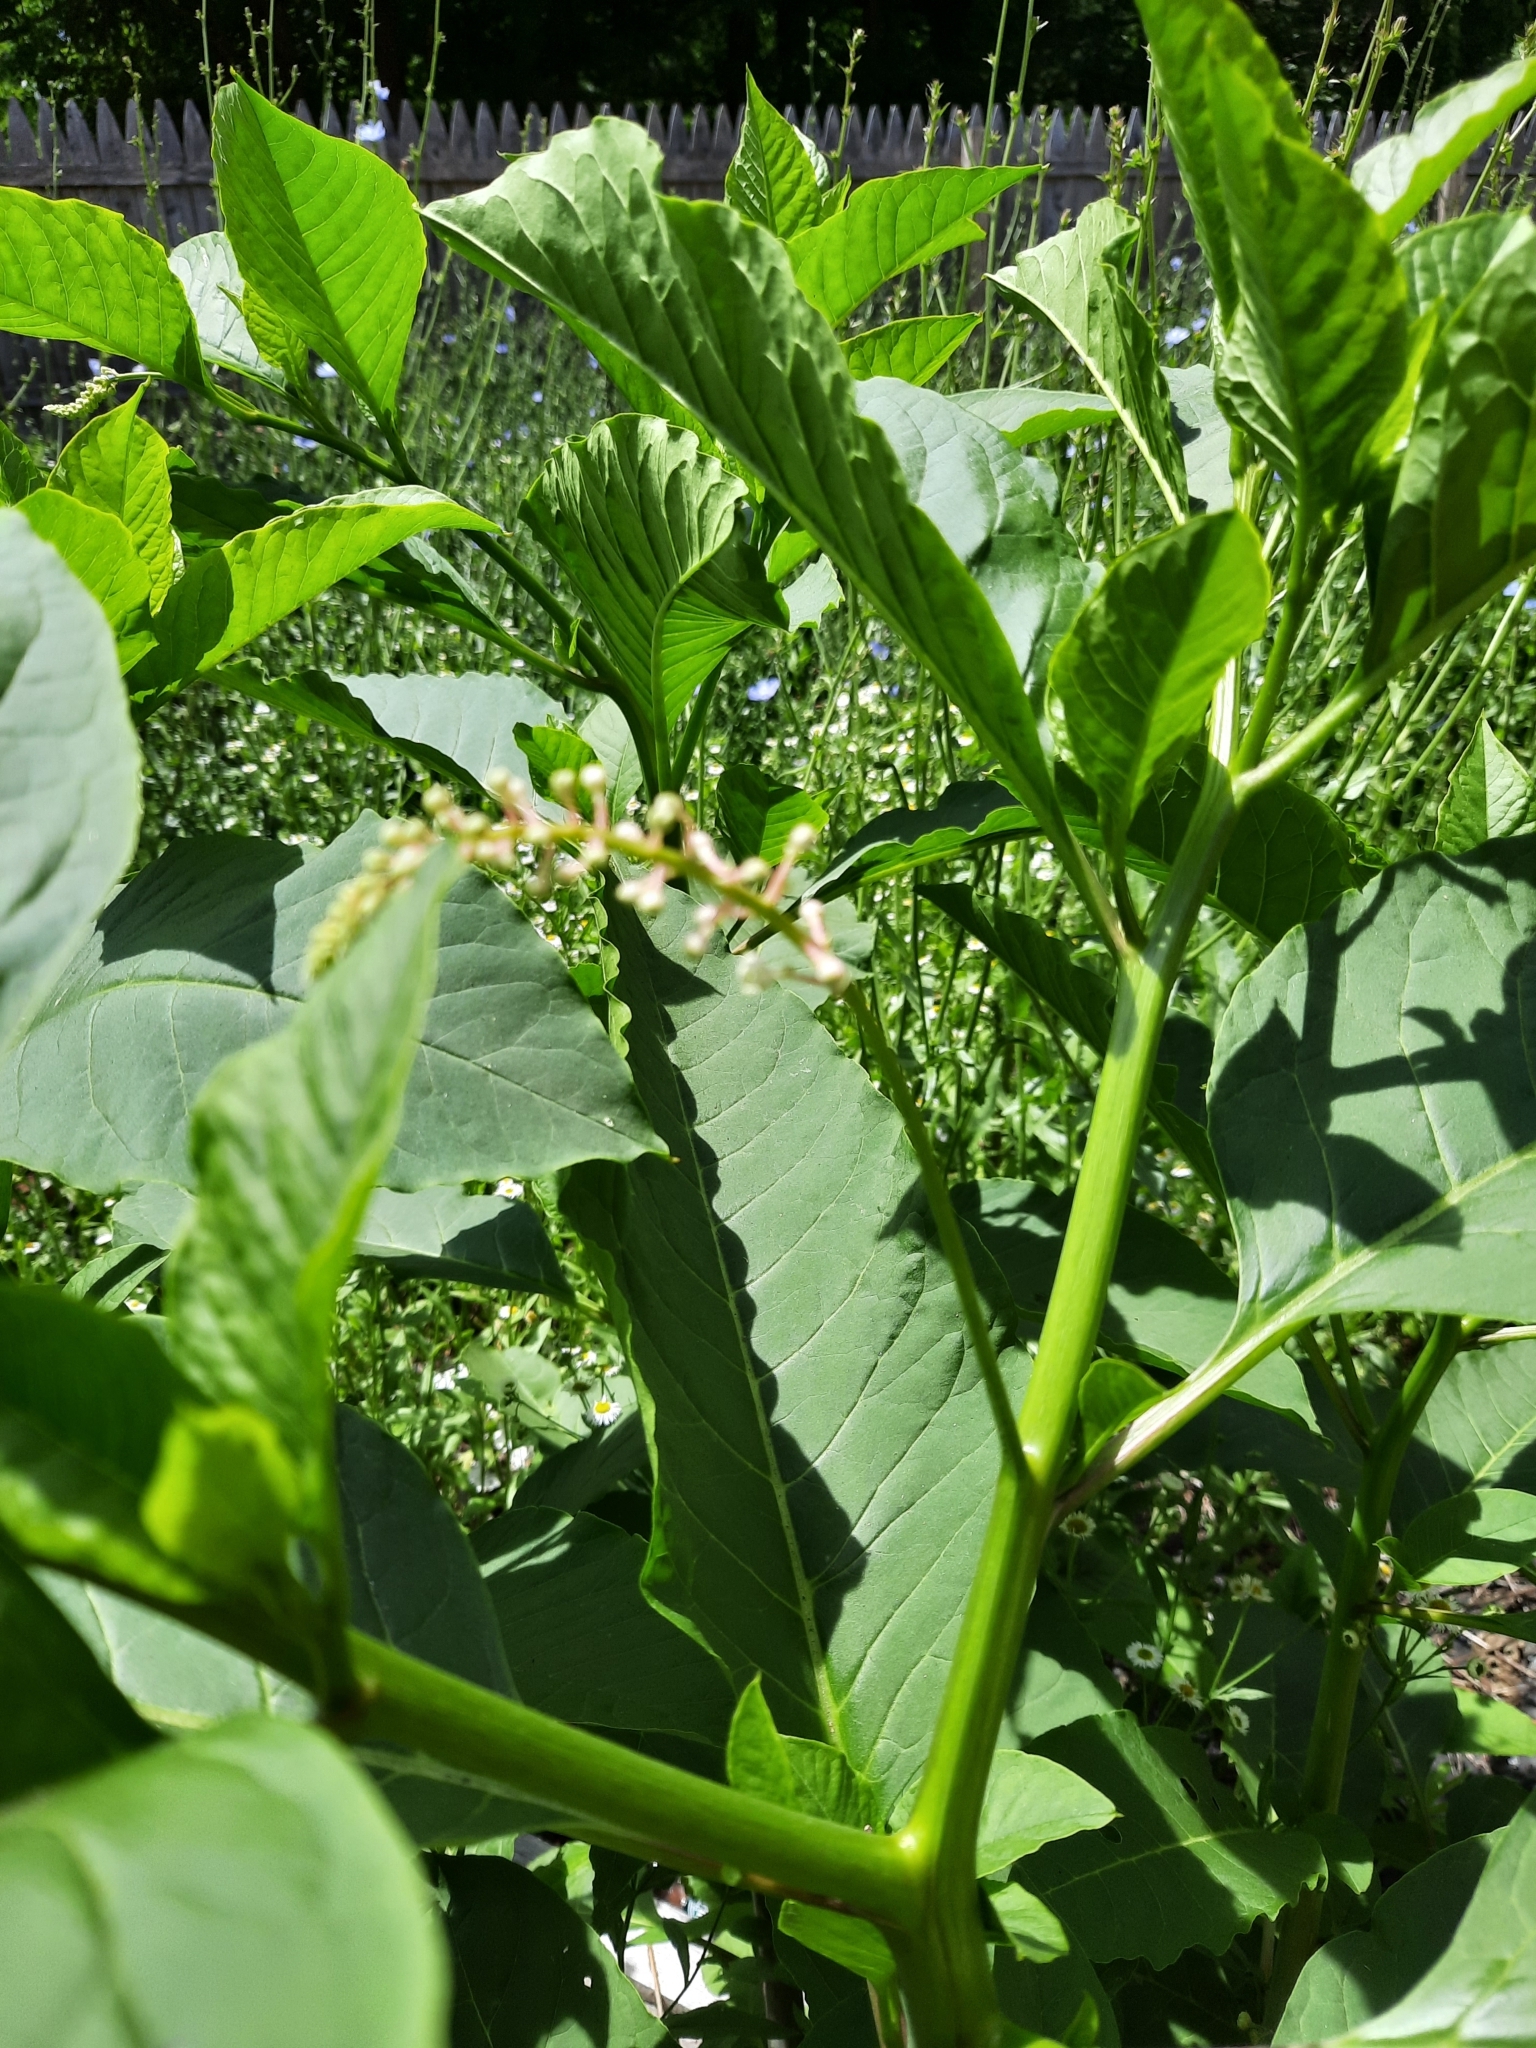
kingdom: Plantae
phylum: Tracheophyta
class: Magnoliopsida
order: Caryophyllales
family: Phytolaccaceae
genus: Phytolacca
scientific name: Phytolacca americana
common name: American pokeweed
